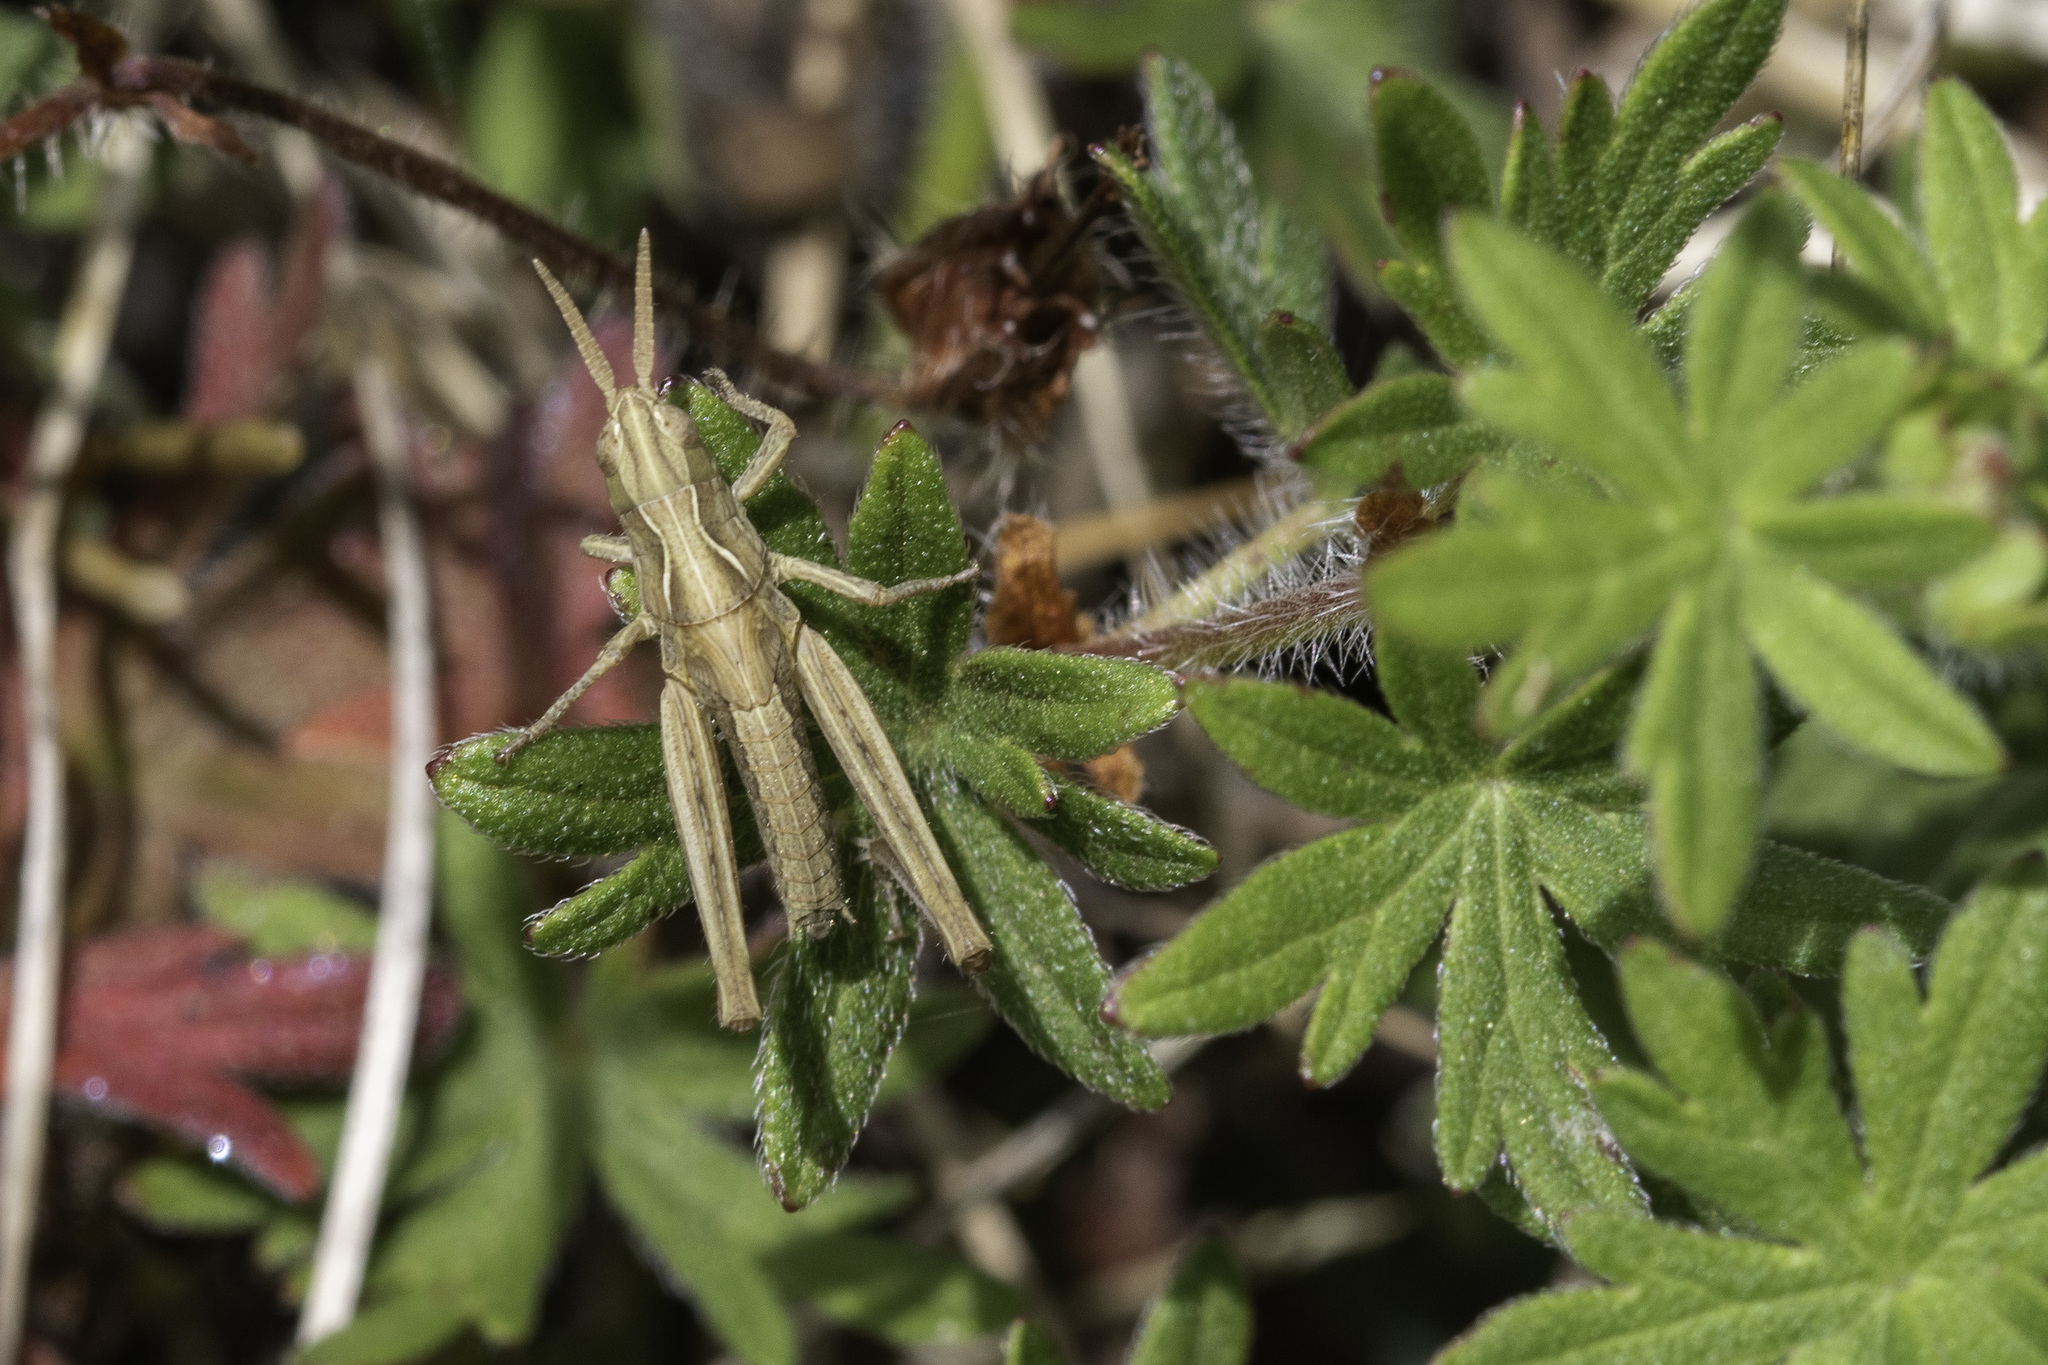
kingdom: Animalia
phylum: Arthropoda
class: Insecta
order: Orthoptera
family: Acrididae
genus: Chorthippus
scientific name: Chorthippus brunneus
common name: Field grasshopper
